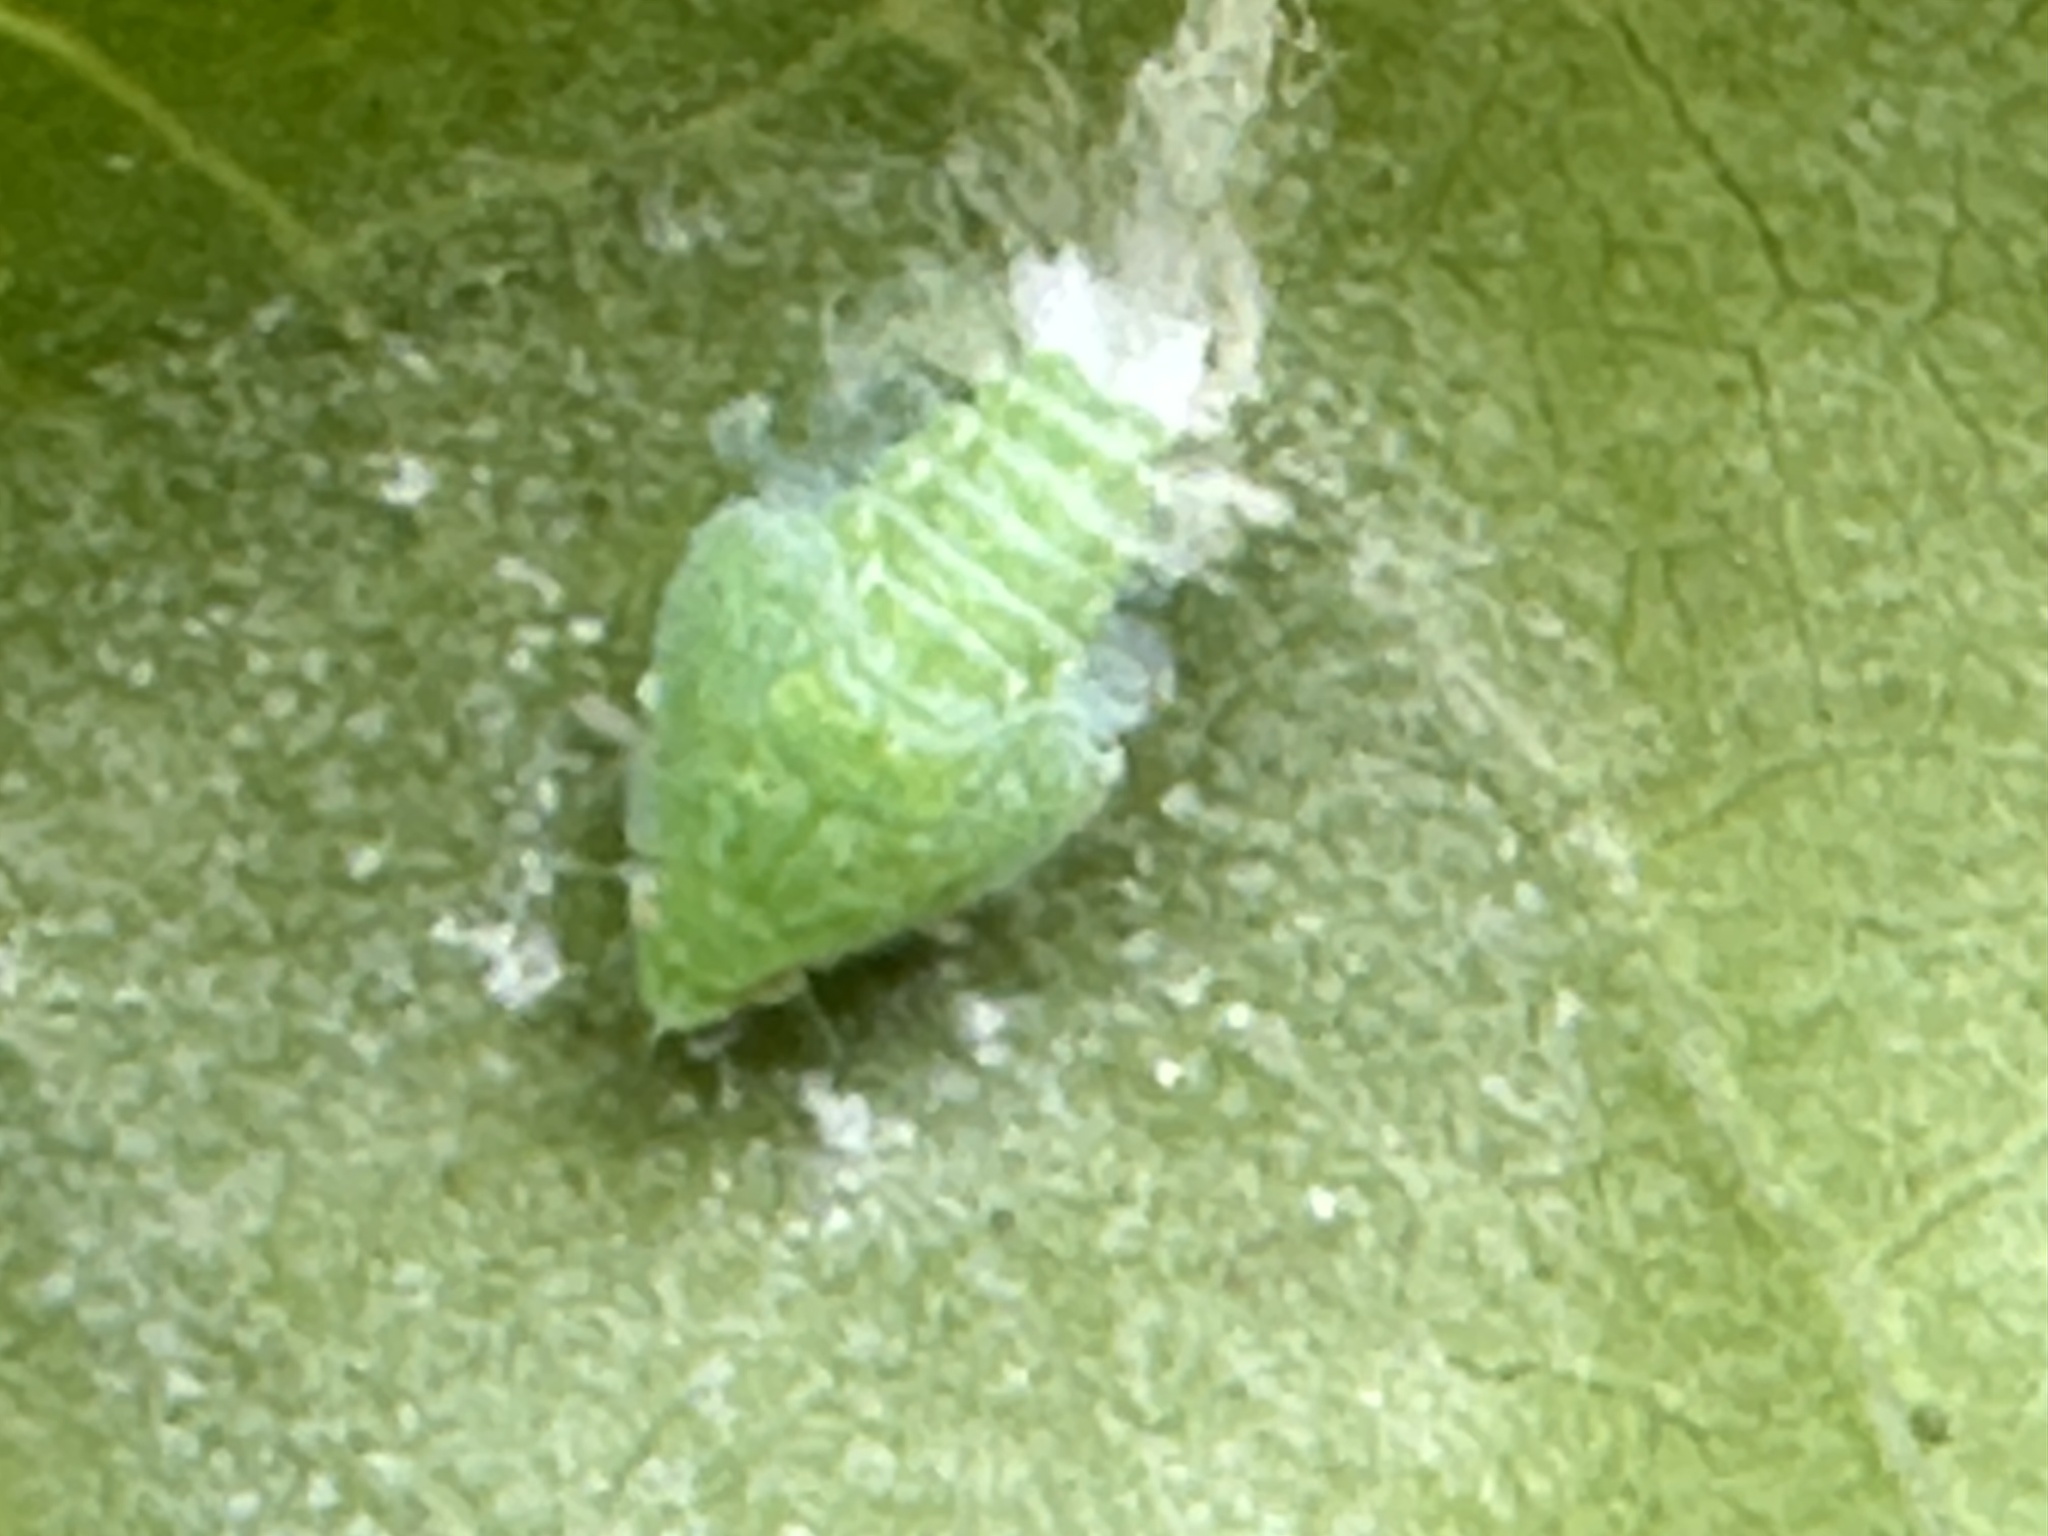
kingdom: Animalia
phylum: Arthropoda
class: Insecta
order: Hemiptera
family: Flatidae
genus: Siphanta
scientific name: Siphanta acuta
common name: Torpedo bug
